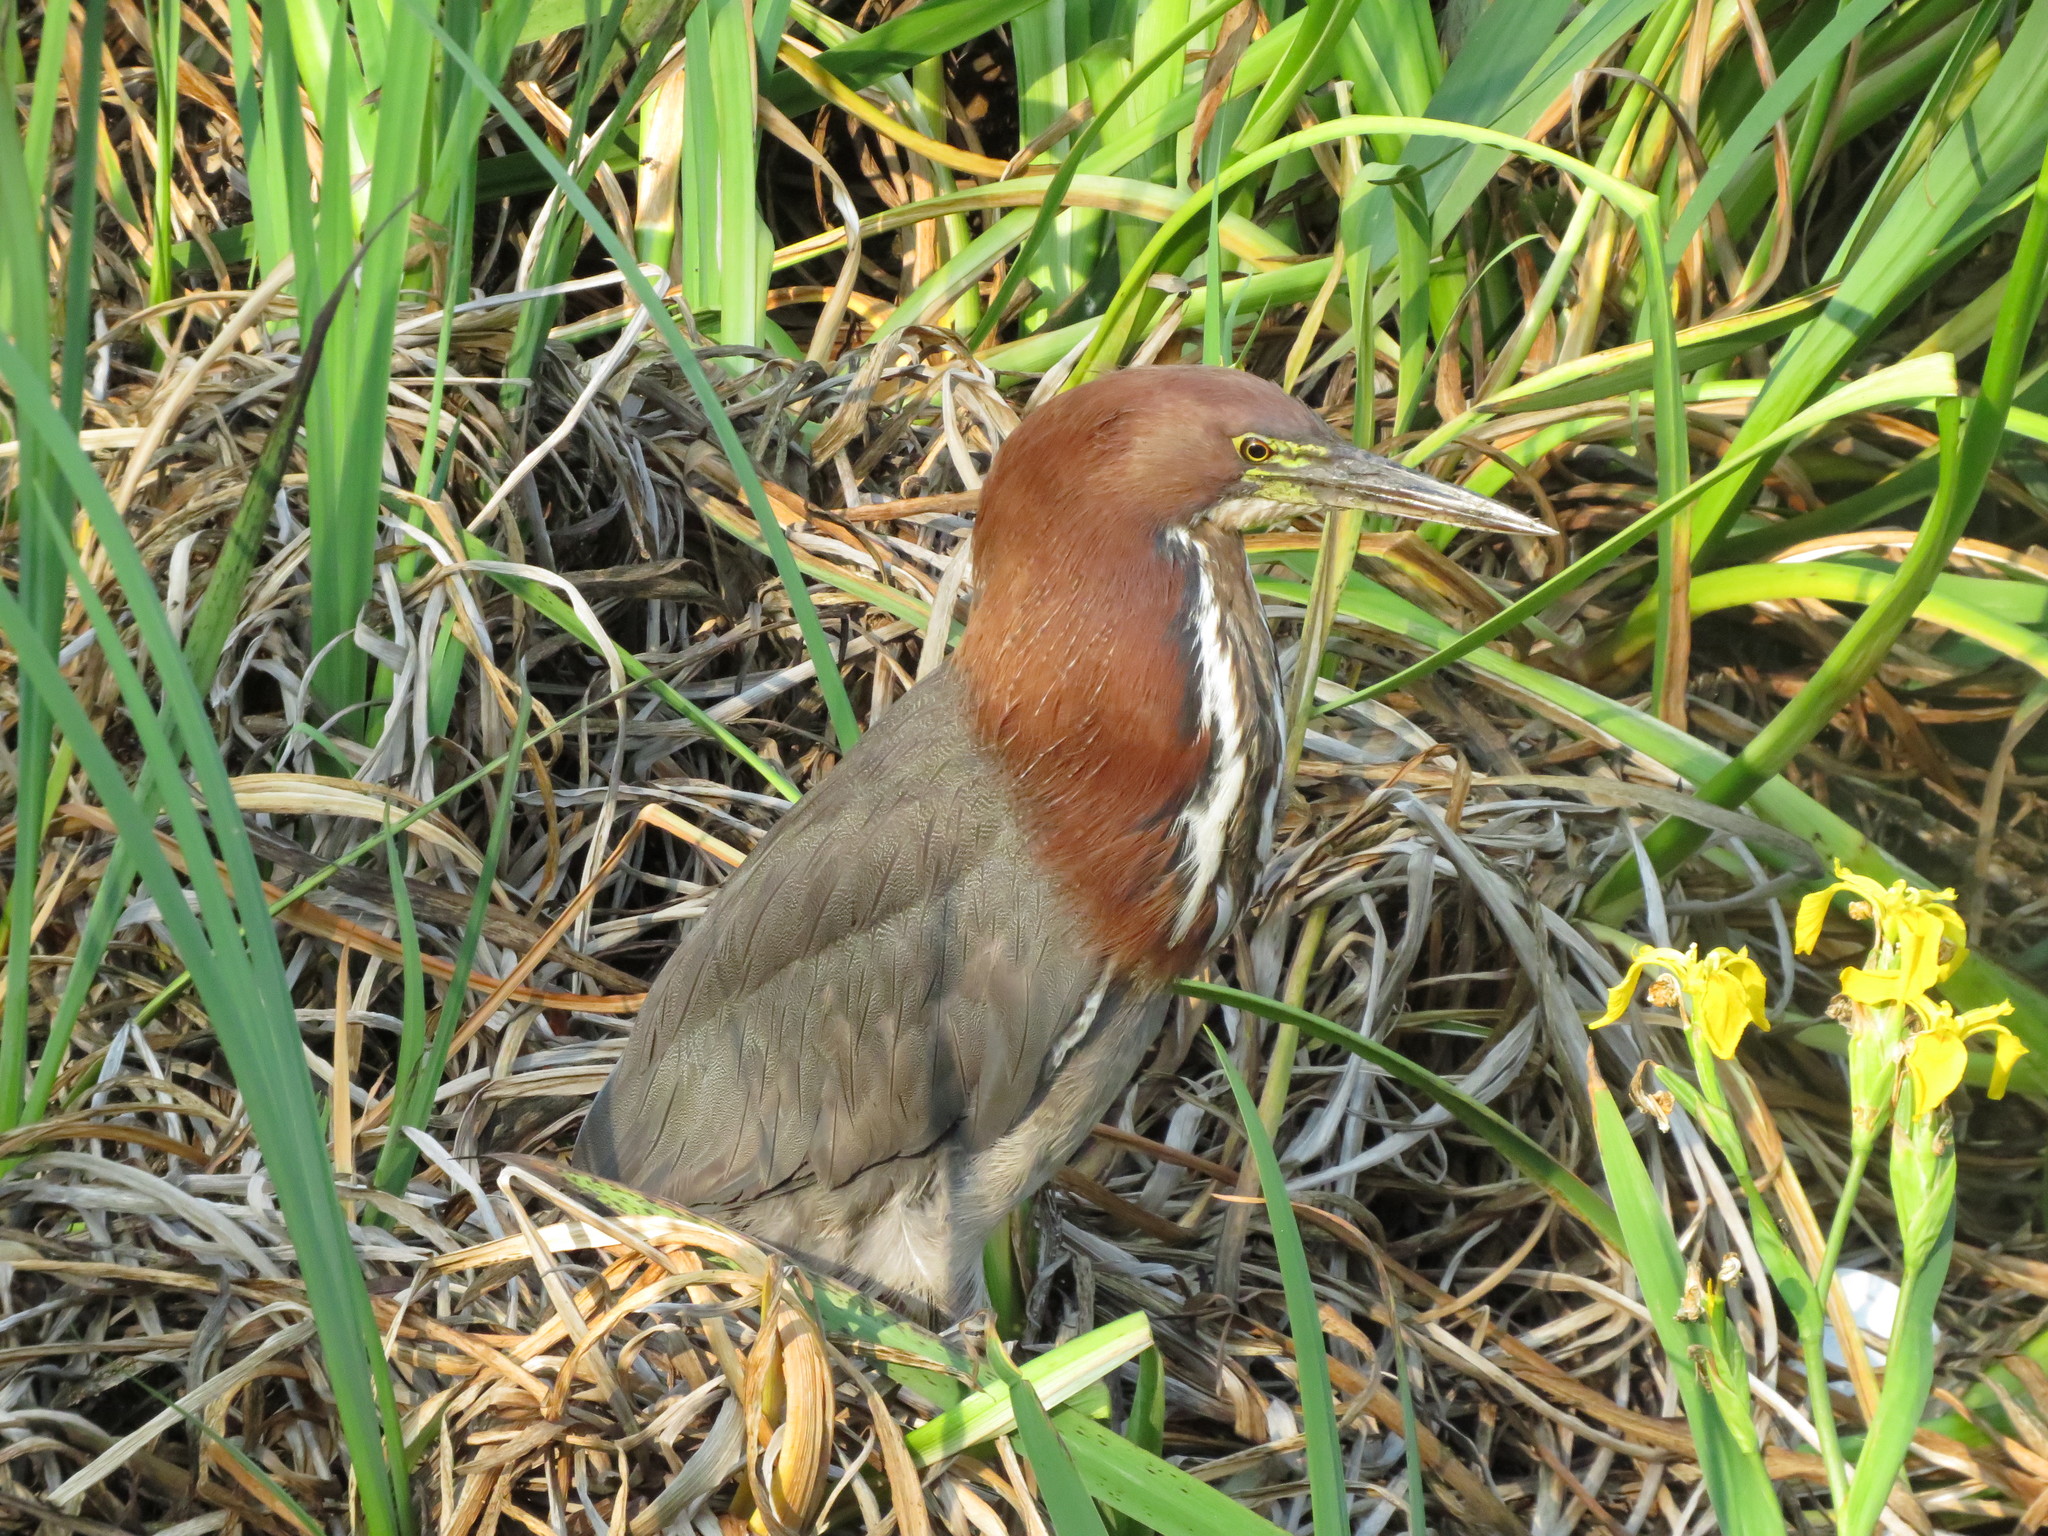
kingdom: Animalia
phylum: Chordata
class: Aves
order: Pelecaniformes
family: Ardeidae
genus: Tigrisoma
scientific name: Tigrisoma lineatum
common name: Rufescent tiger-heron
